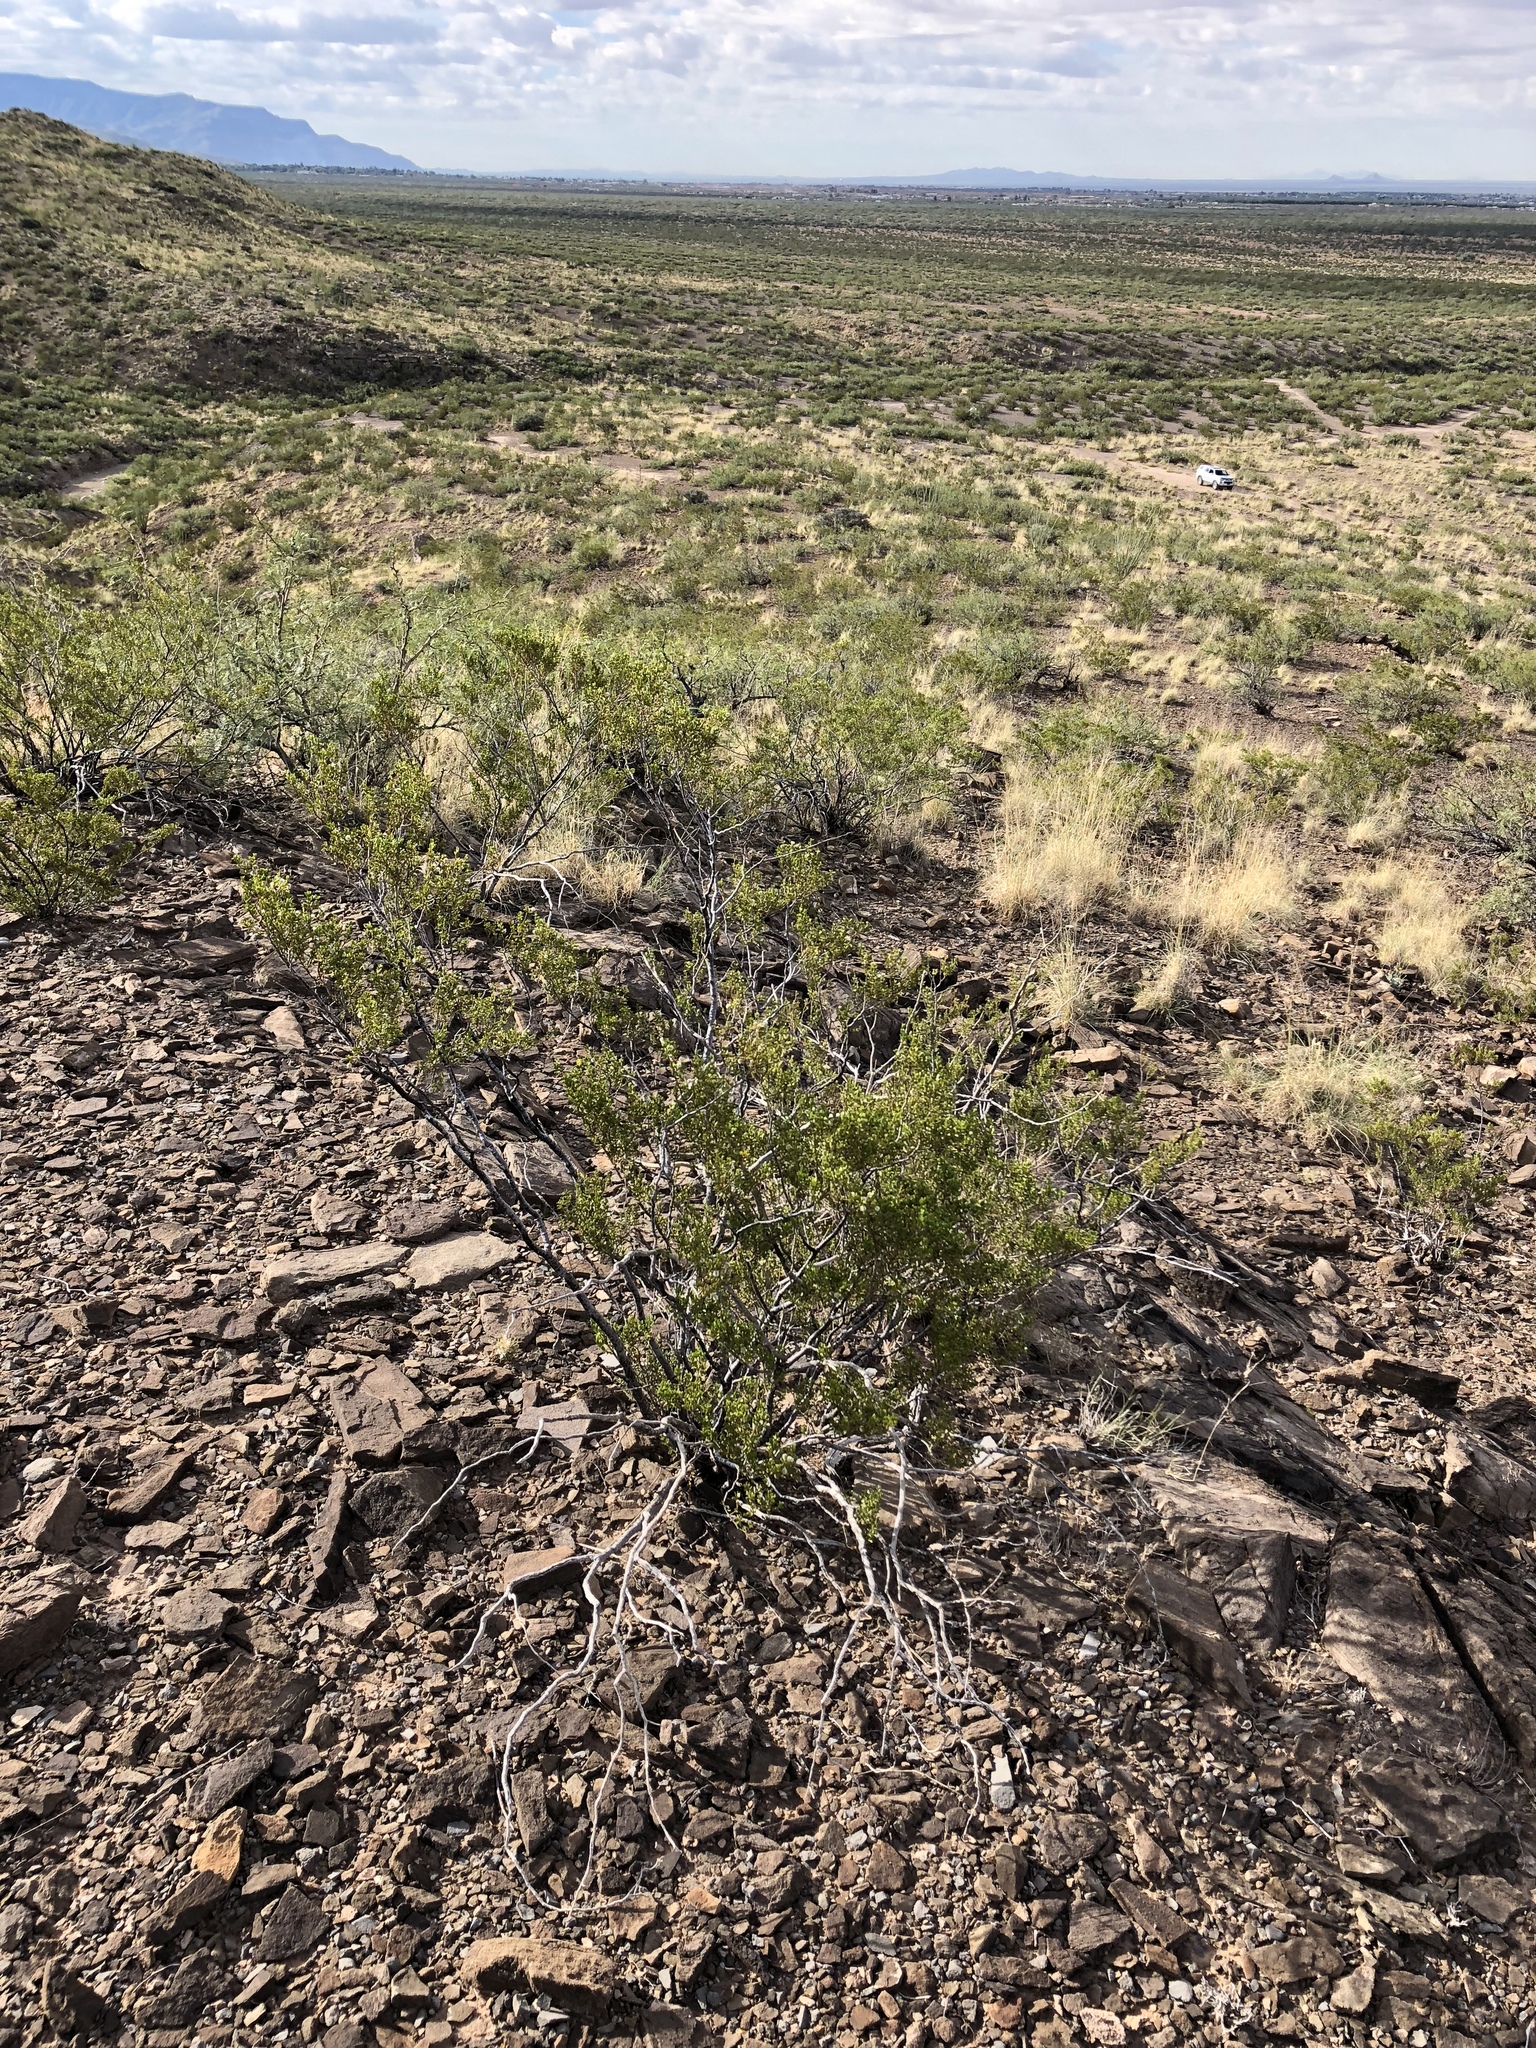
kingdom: Plantae
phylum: Tracheophyta
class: Magnoliopsida
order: Zygophyllales
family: Zygophyllaceae
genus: Larrea
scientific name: Larrea tridentata
